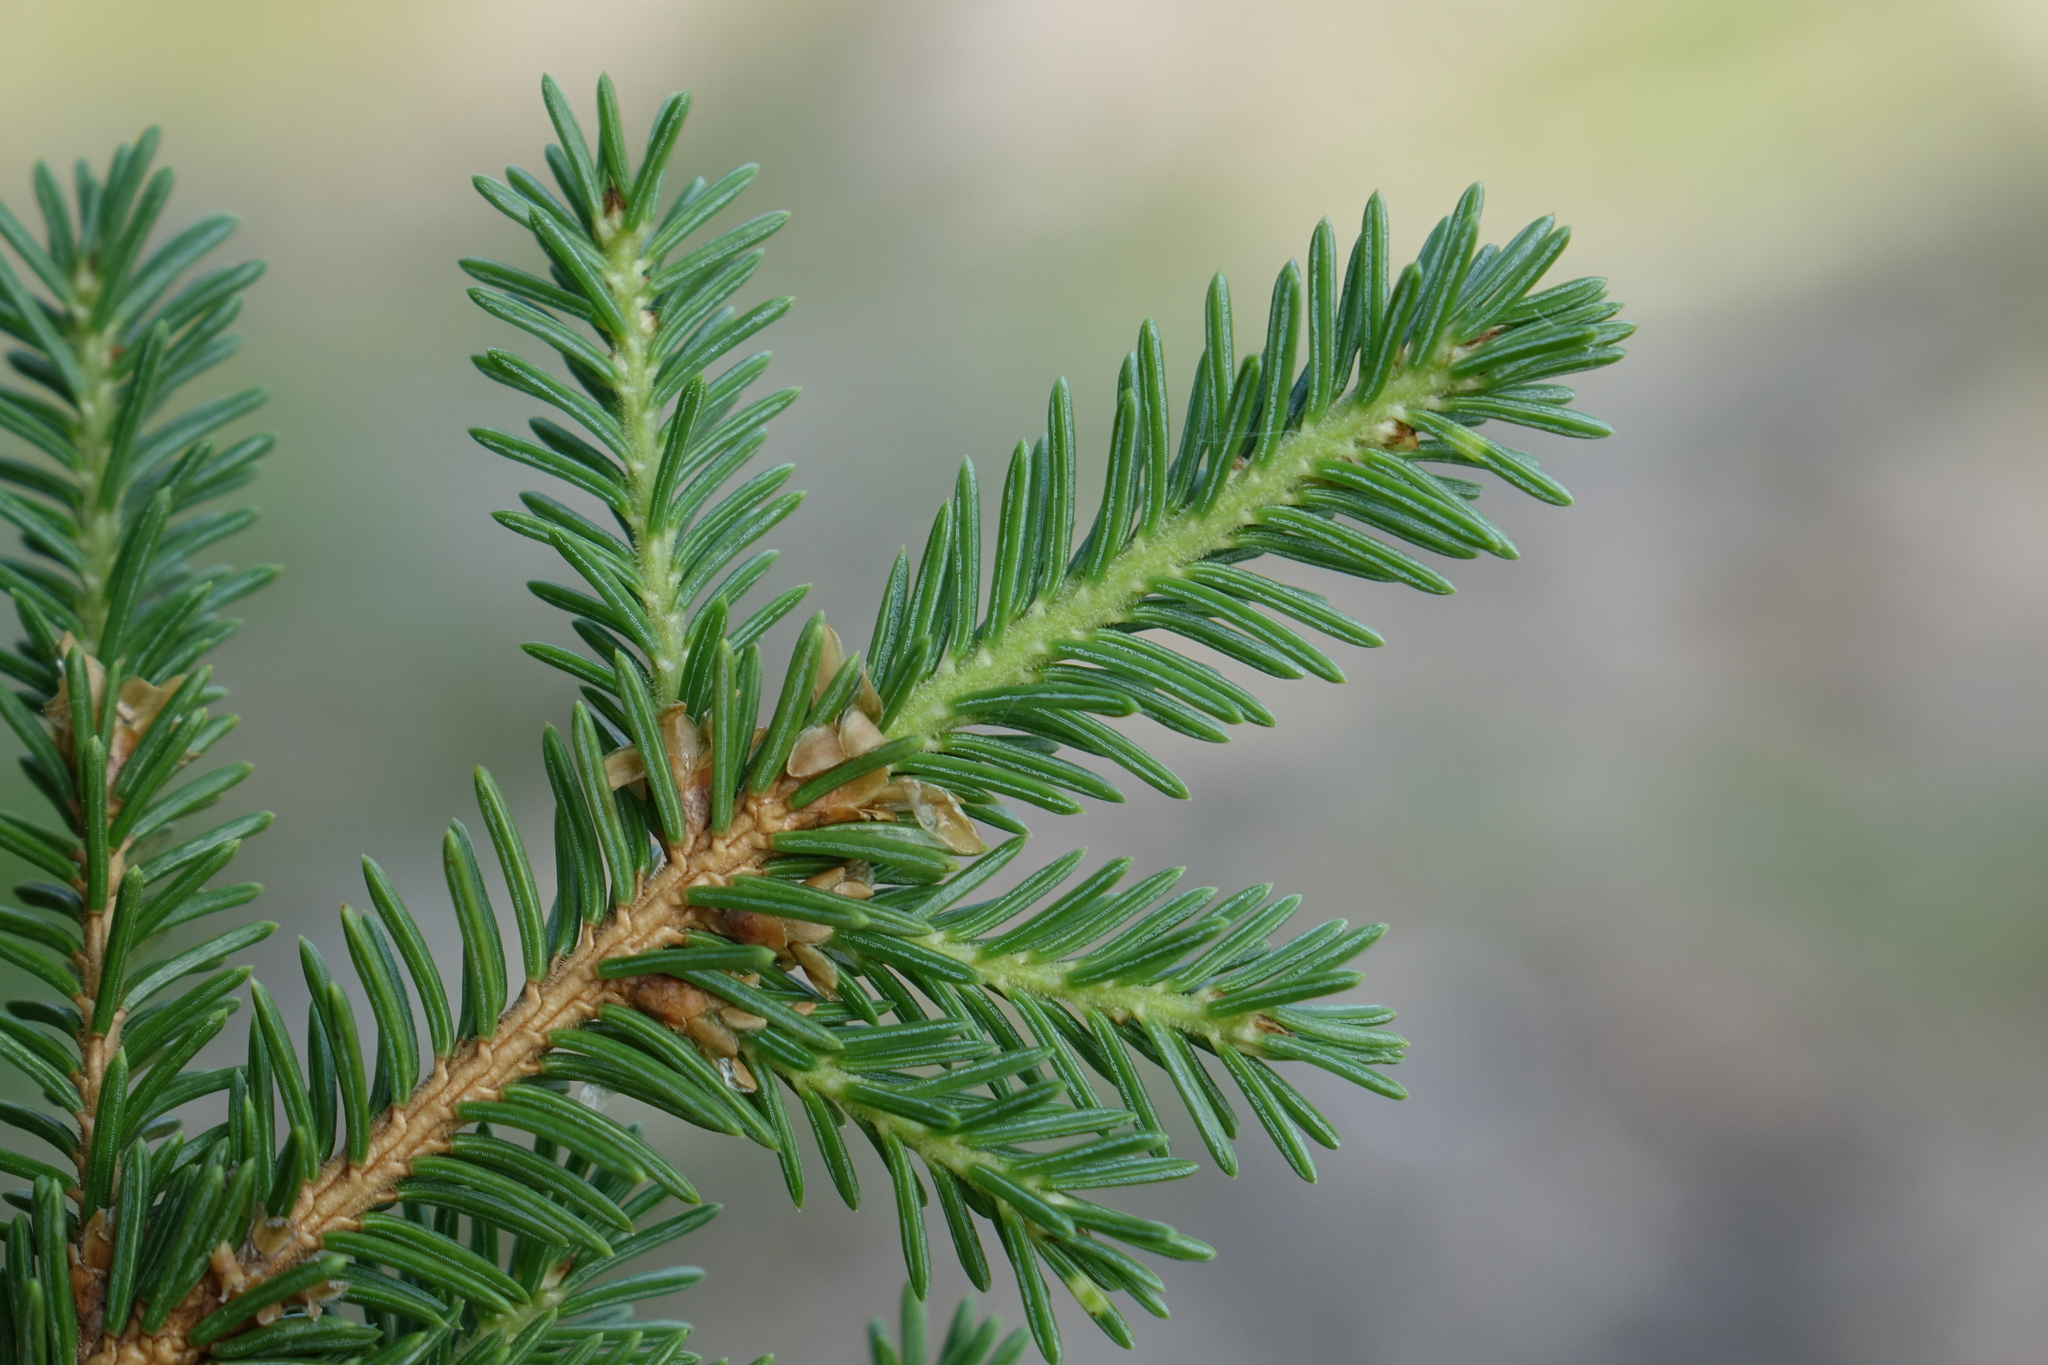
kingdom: Plantae
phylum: Tracheophyta
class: Pinopsida
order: Pinales
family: Pinaceae
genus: Picea
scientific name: Picea jezoensis
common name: Yeddo spruce
